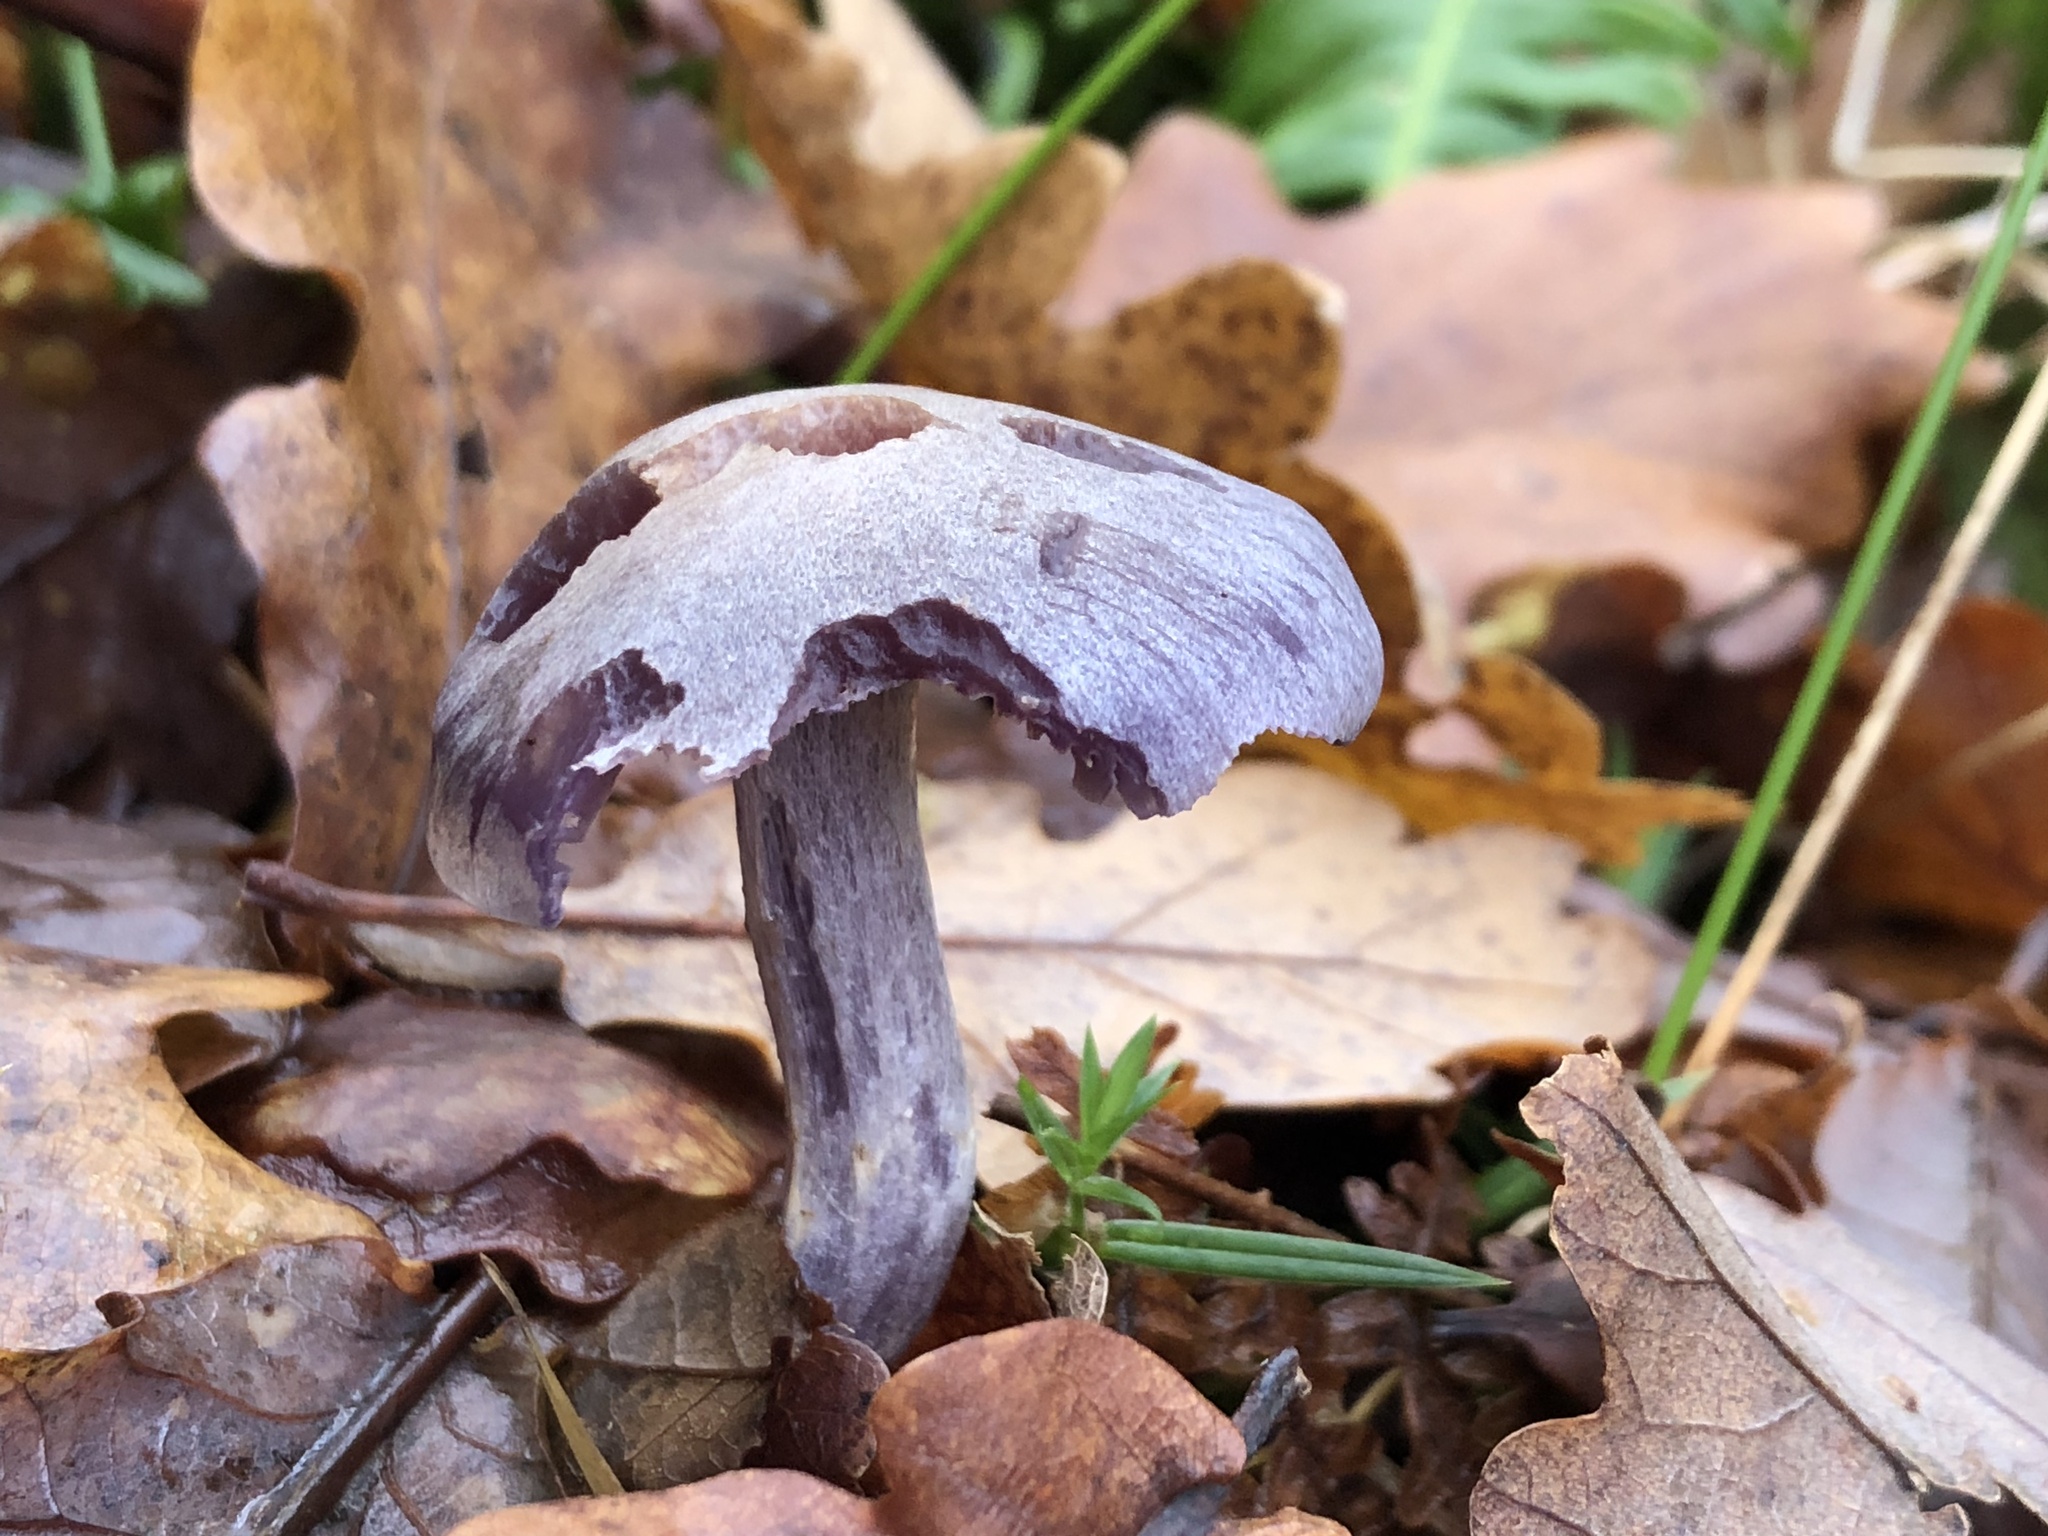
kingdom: Fungi
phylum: Basidiomycota
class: Agaricomycetes
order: Agaricales
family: Hydnangiaceae
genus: Laccaria
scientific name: Laccaria amethystina
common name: Amethyst deceiver
